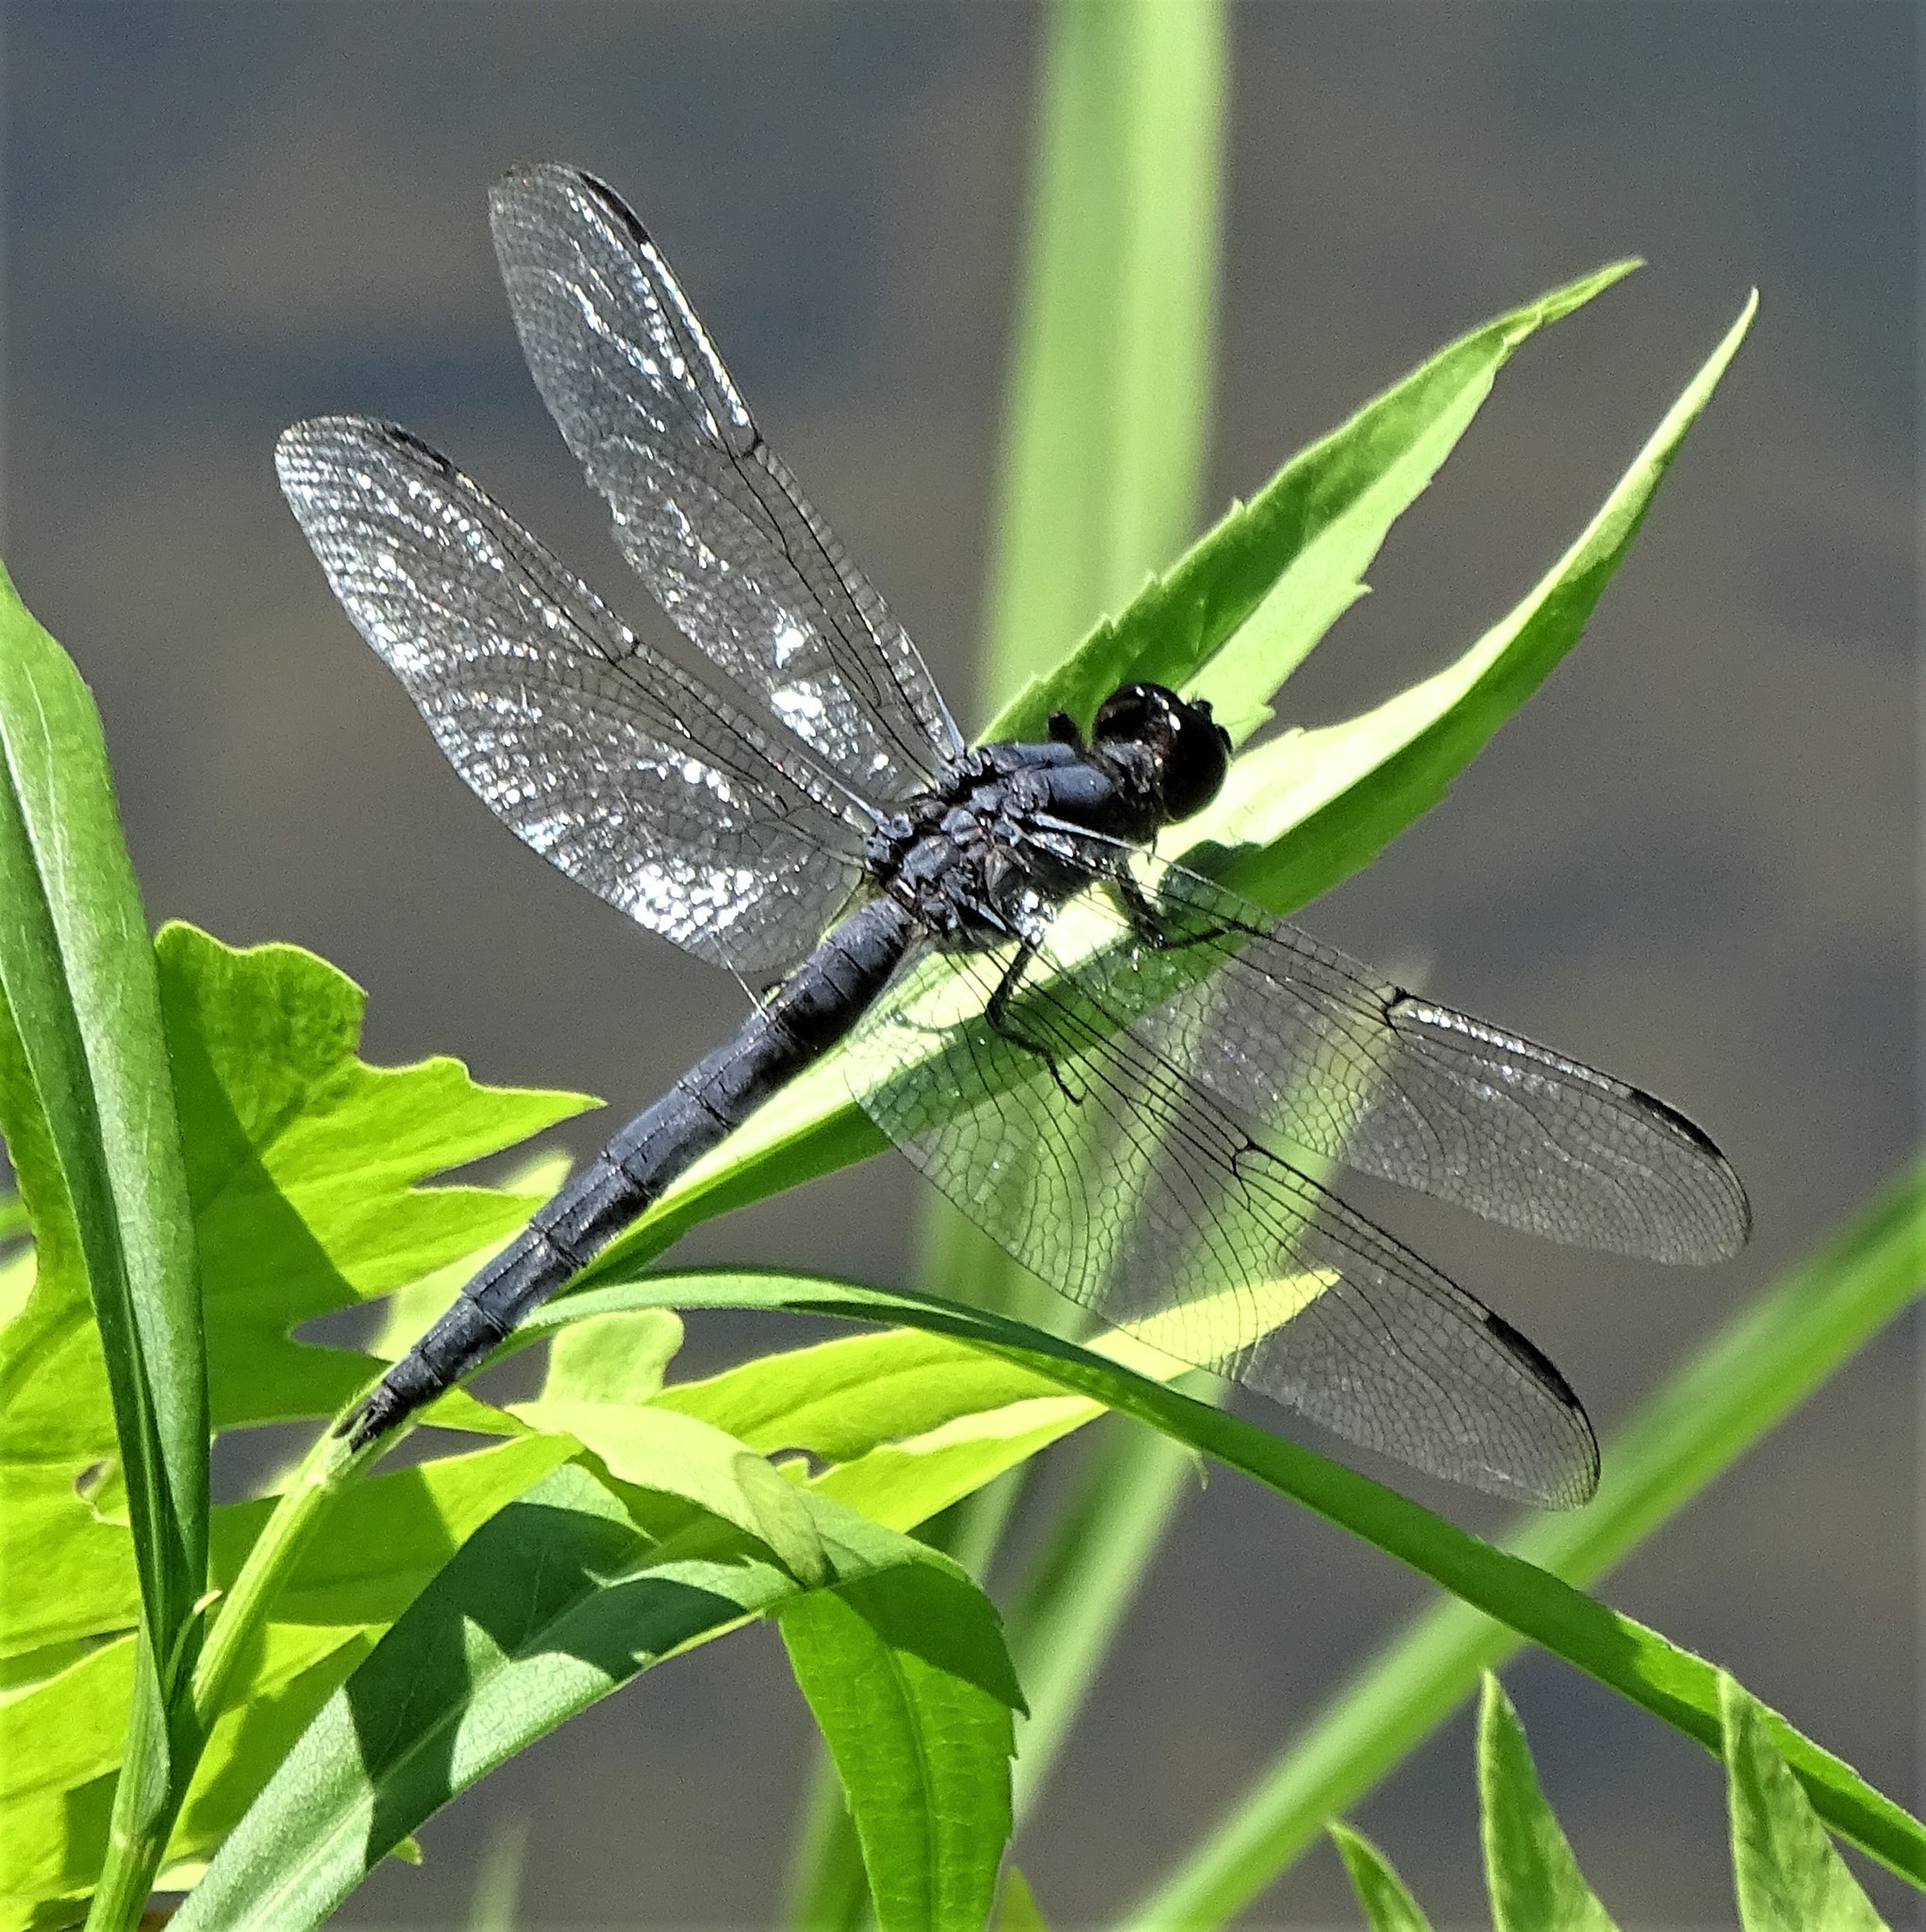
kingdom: Animalia
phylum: Arthropoda
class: Insecta
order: Odonata
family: Libellulidae
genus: Libellula
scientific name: Libellula incesta
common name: Slaty skimmer
